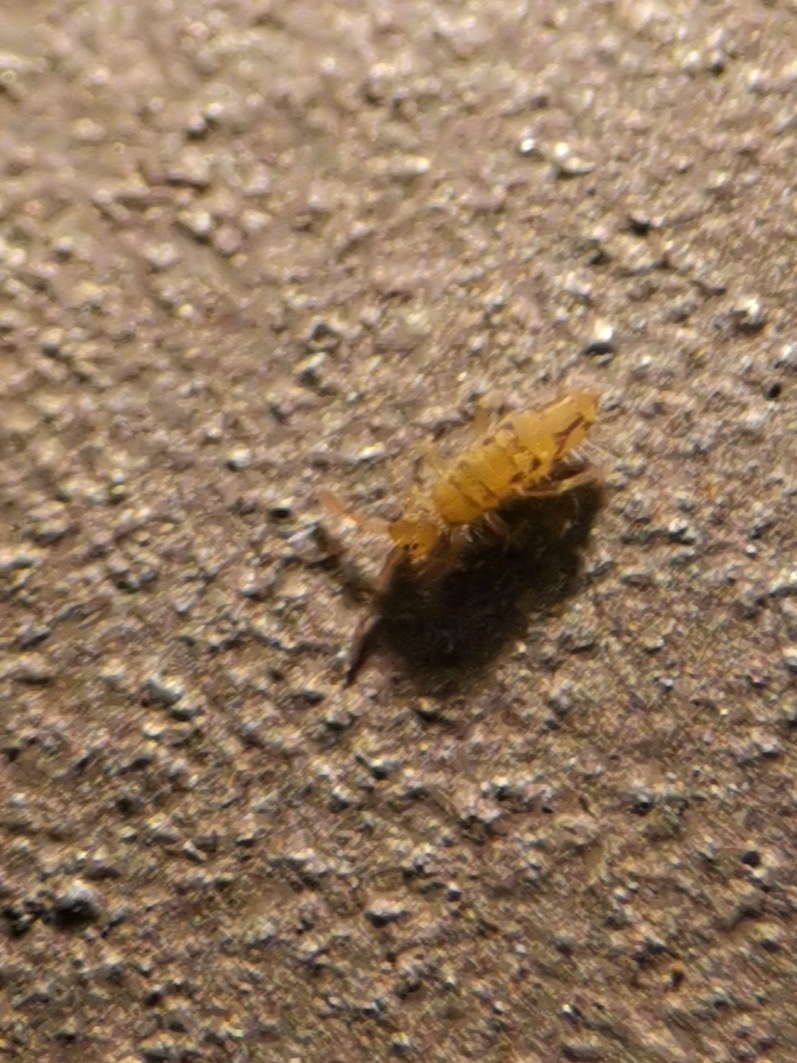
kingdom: Animalia
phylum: Arthropoda
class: Collembola
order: Entomobryomorpha
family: Entomobryidae
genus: Entomobrya
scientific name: Entomobrya nivalis
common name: Cosmopolitan springtail
